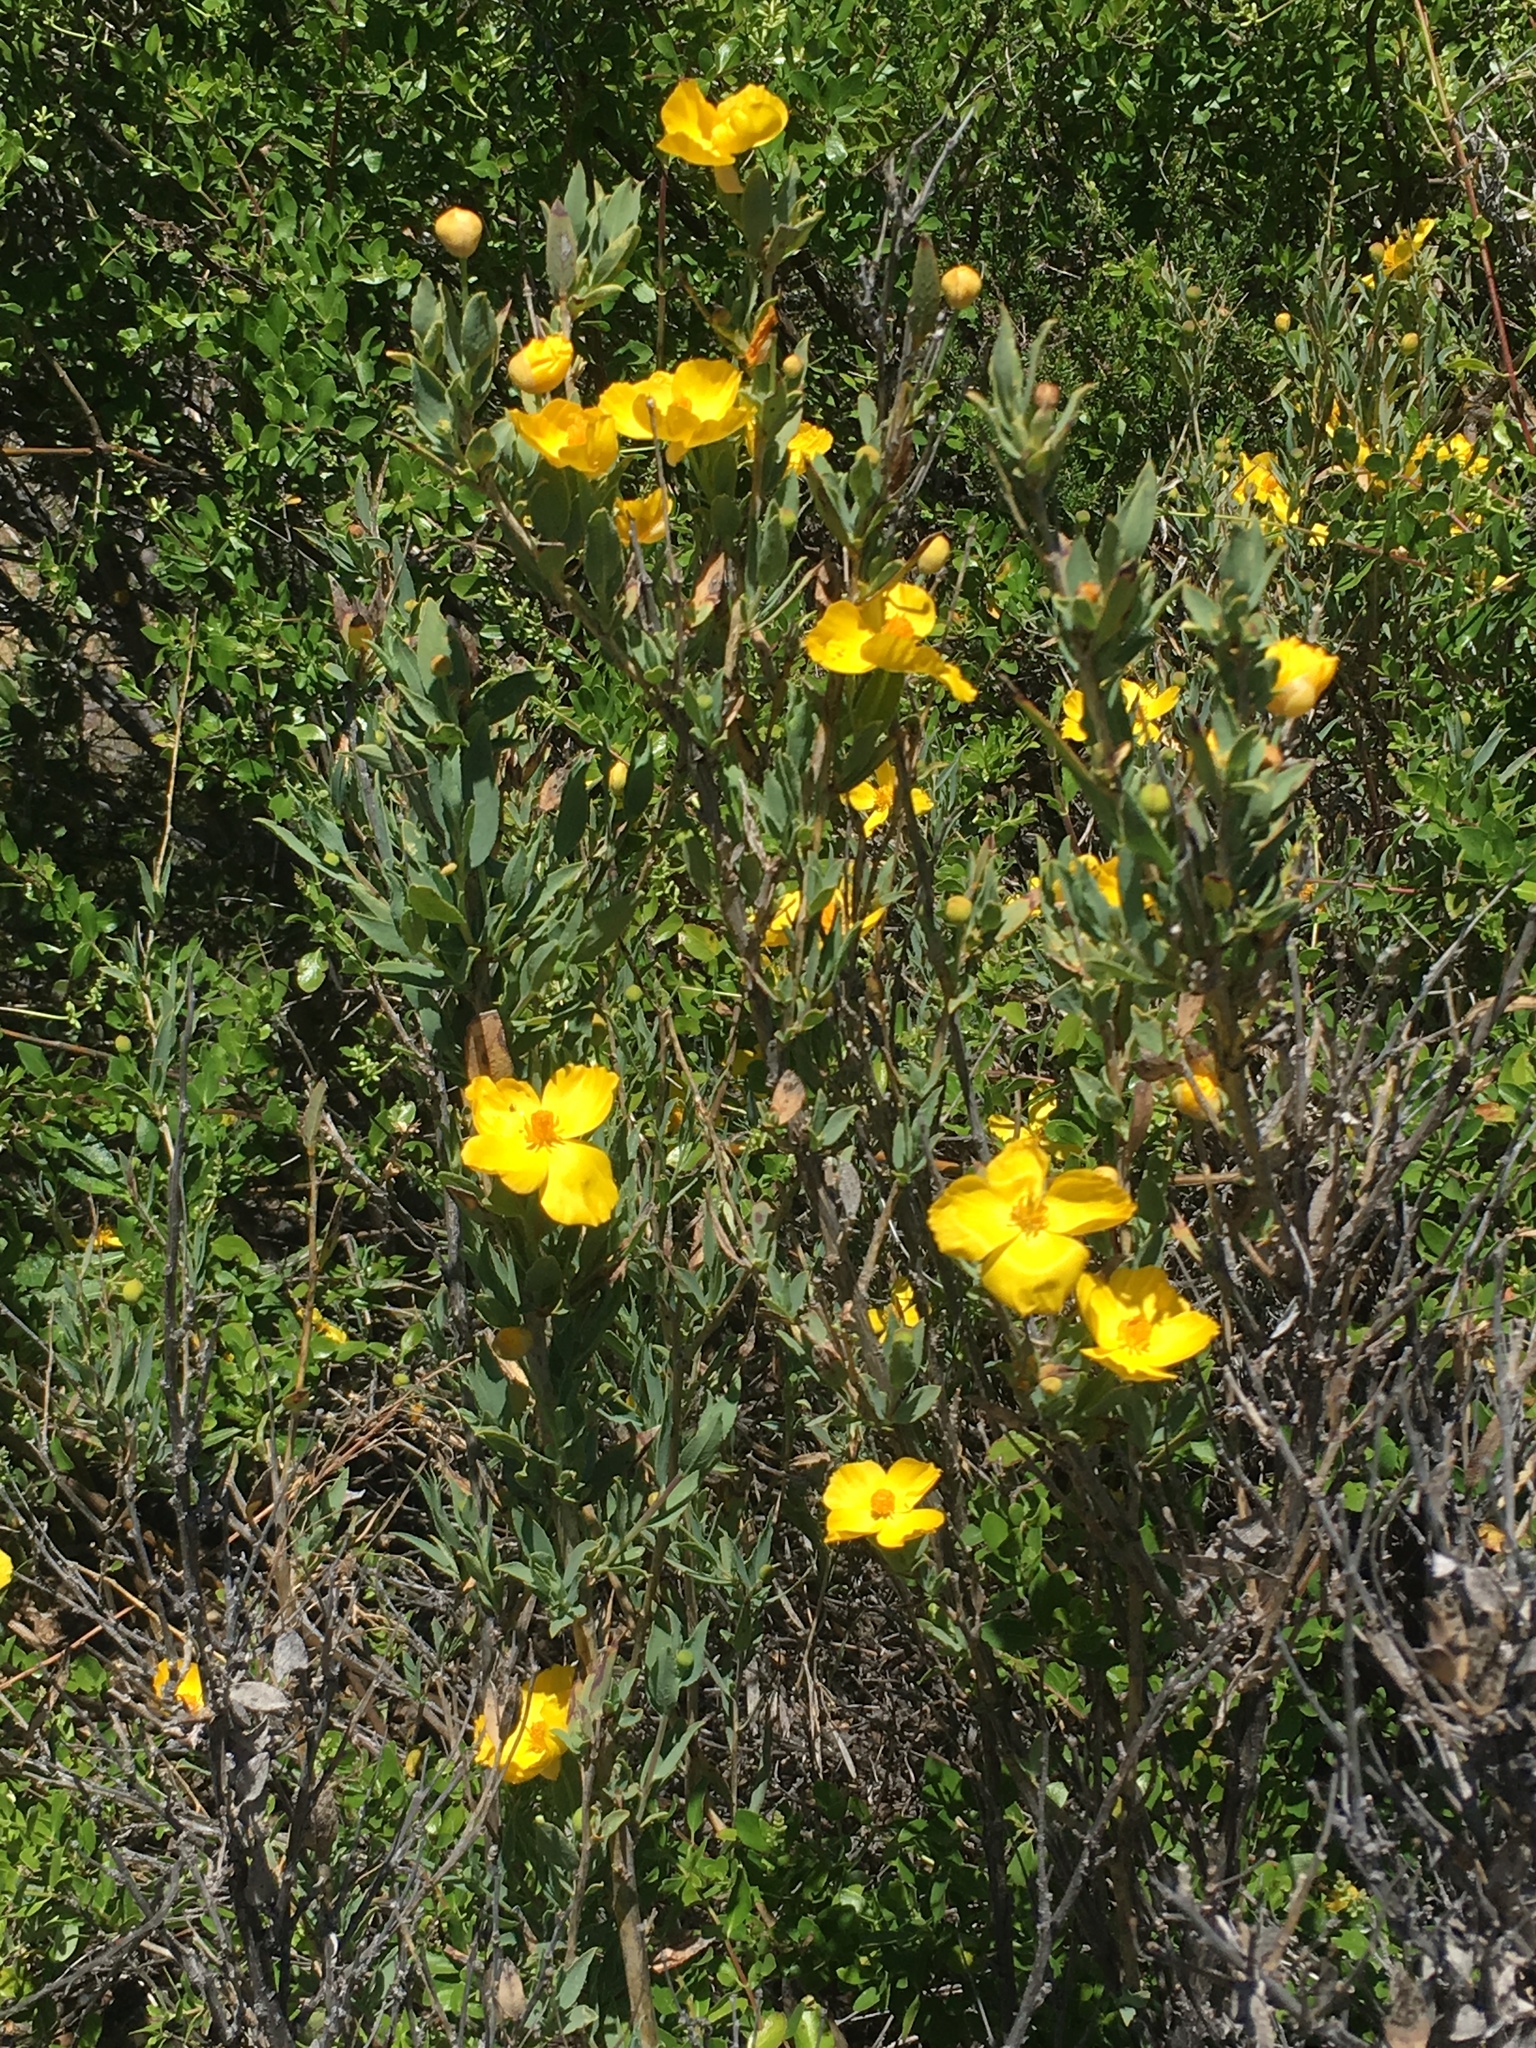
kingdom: Plantae
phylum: Tracheophyta
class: Magnoliopsida
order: Ranunculales
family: Papaveraceae
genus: Dendromecon
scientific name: Dendromecon rigida
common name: Tree poppy
